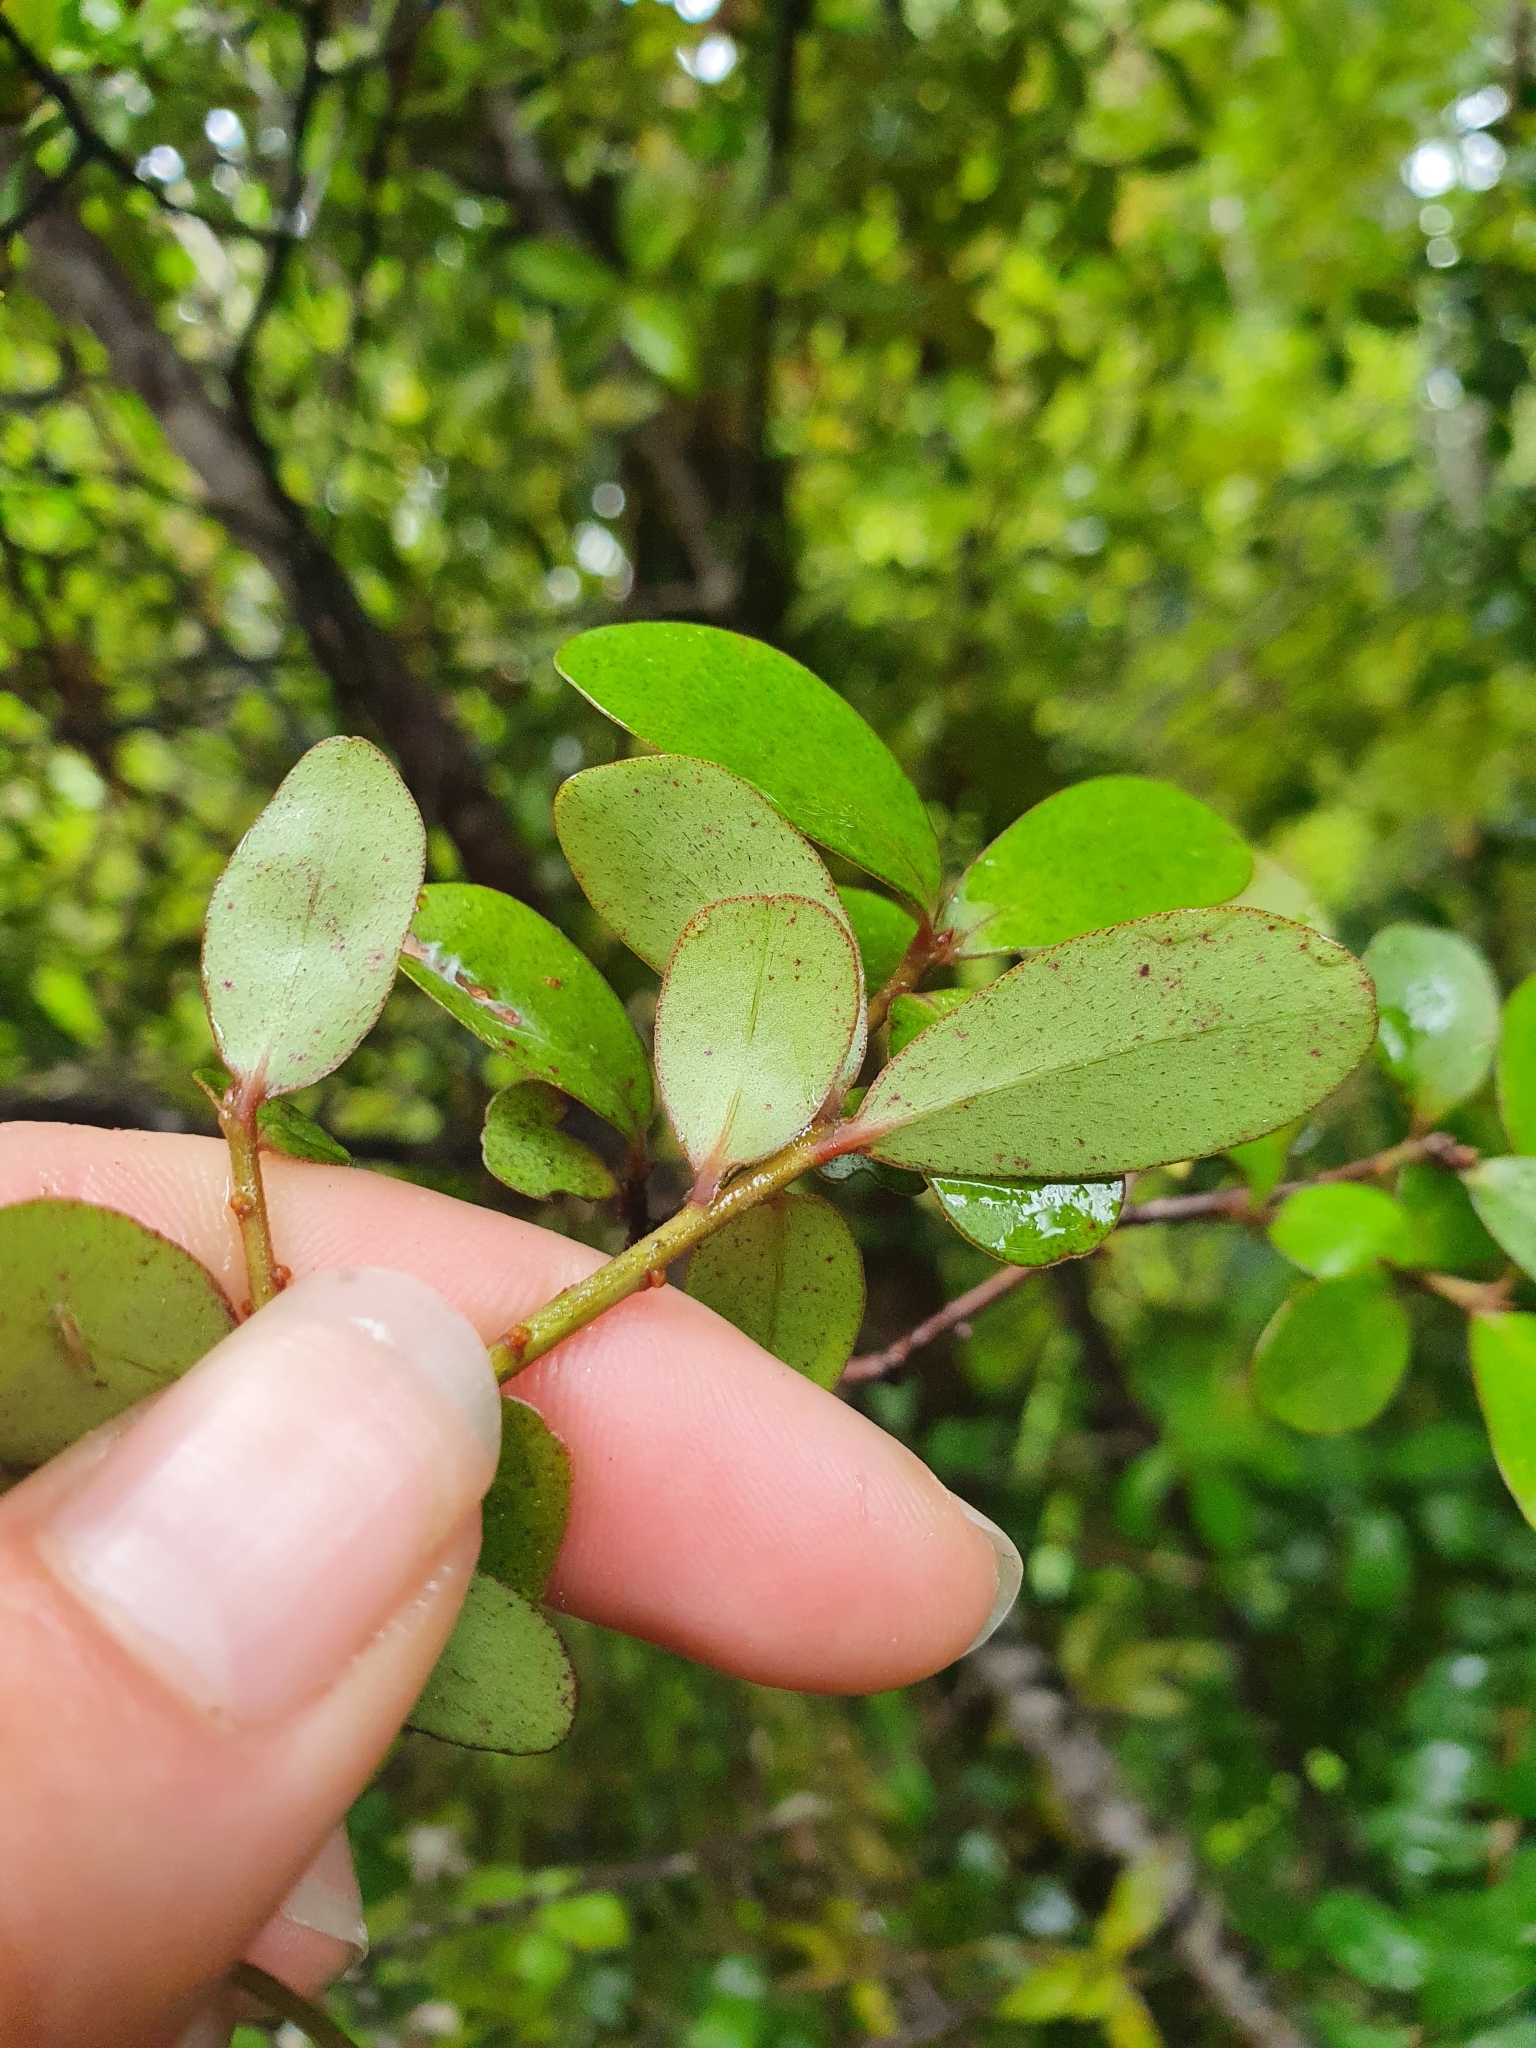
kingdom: Plantae
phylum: Tracheophyta
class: Magnoliopsida
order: Ericales
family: Primulaceae
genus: Myrsine
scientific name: Myrsine
